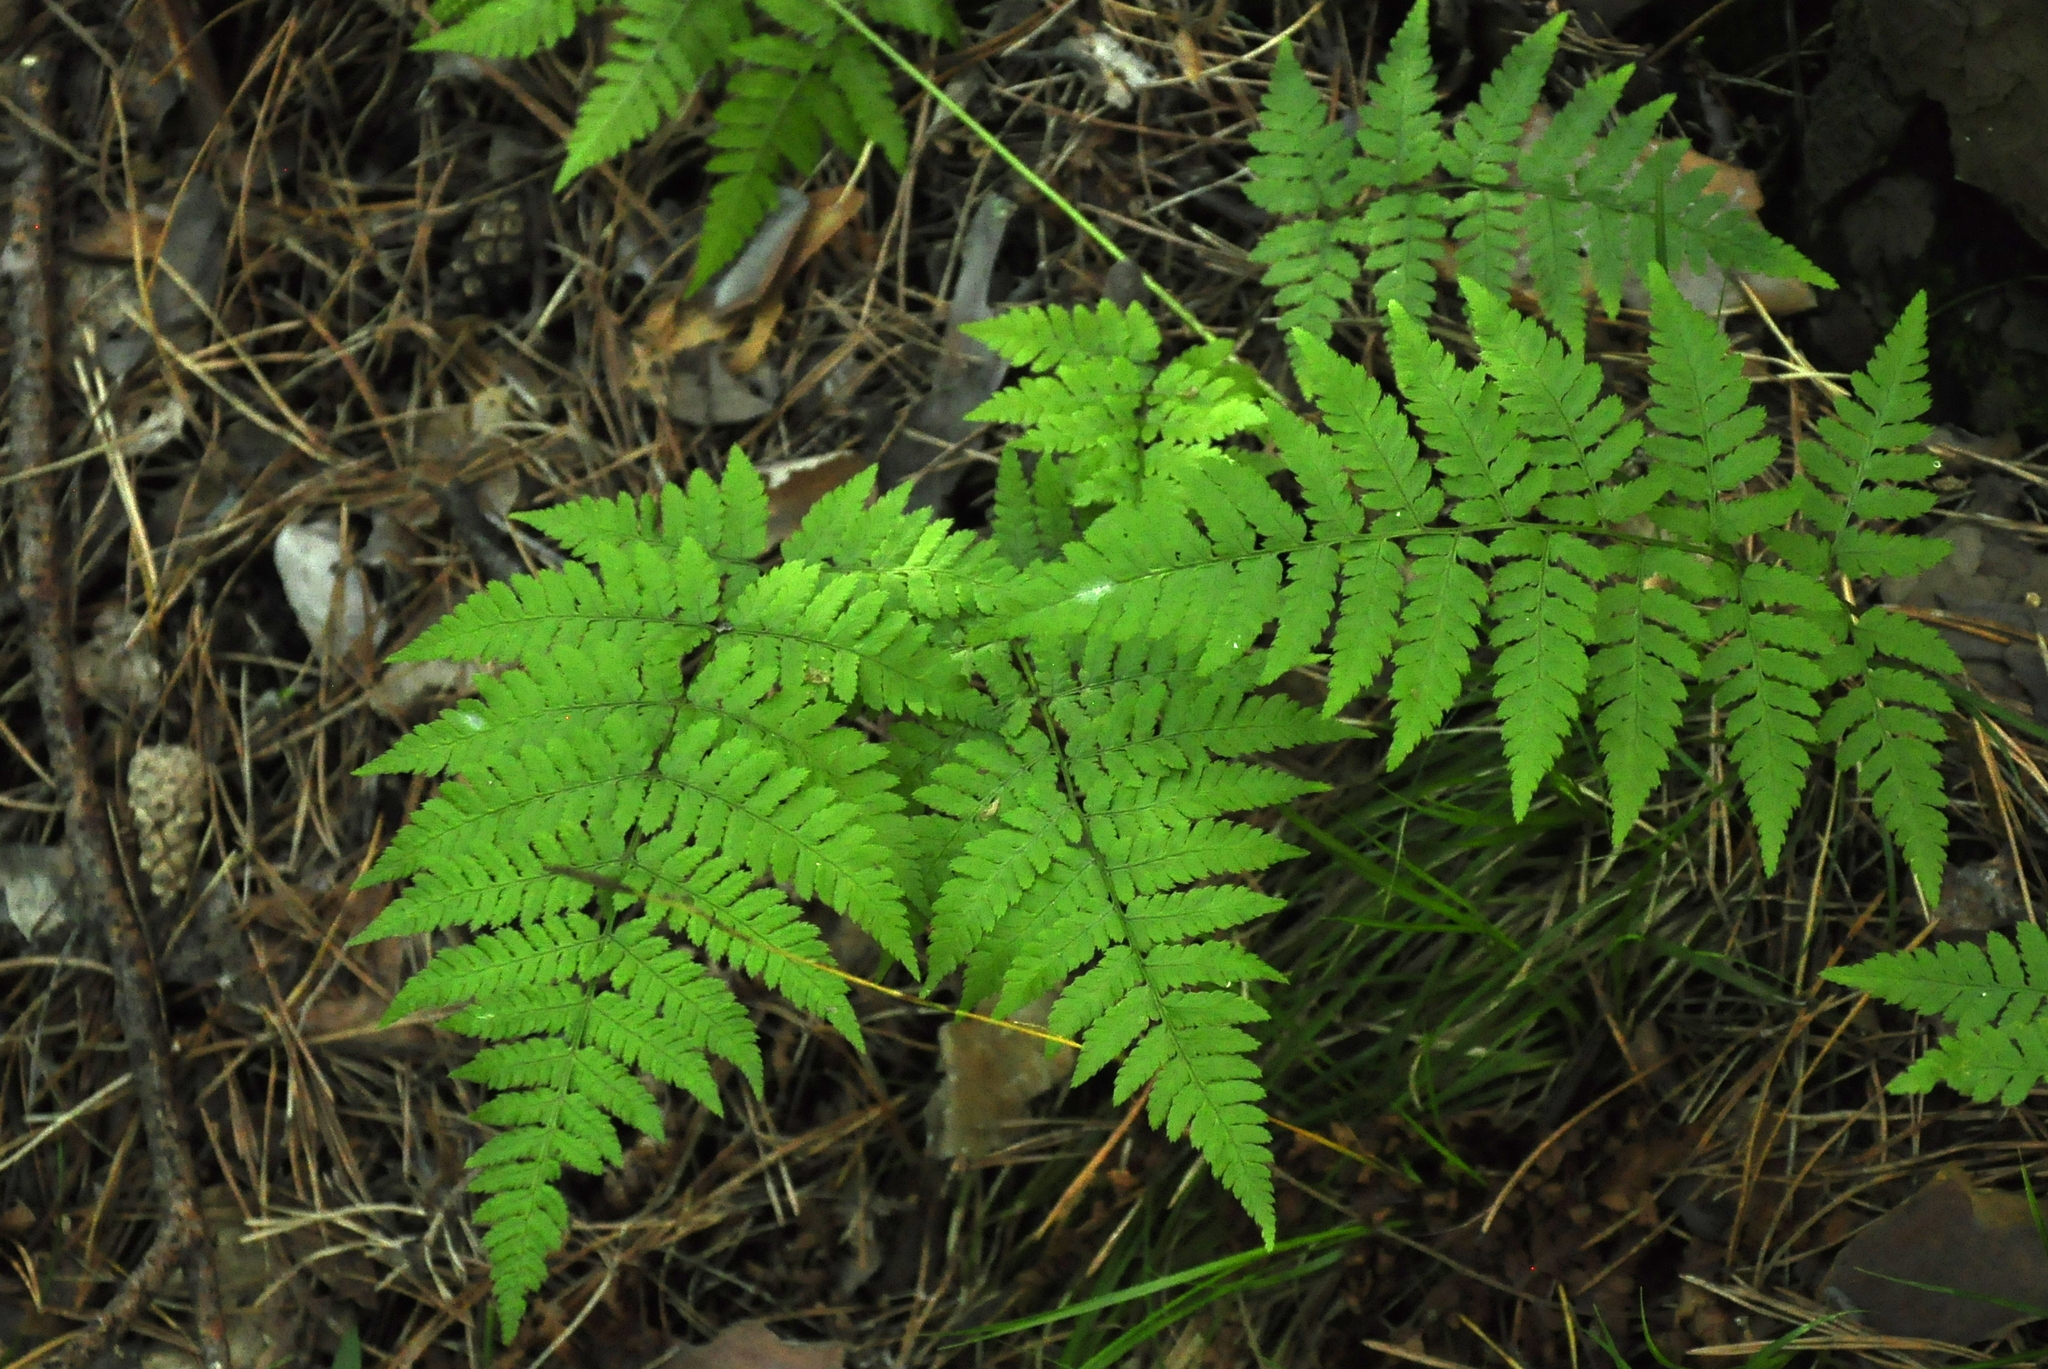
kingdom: Plantae
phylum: Tracheophyta
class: Polypodiopsida
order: Polypodiales
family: Dryopteridaceae
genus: Dryopteris
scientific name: Dryopteris carthusiana
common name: Narrow buckler-fern
